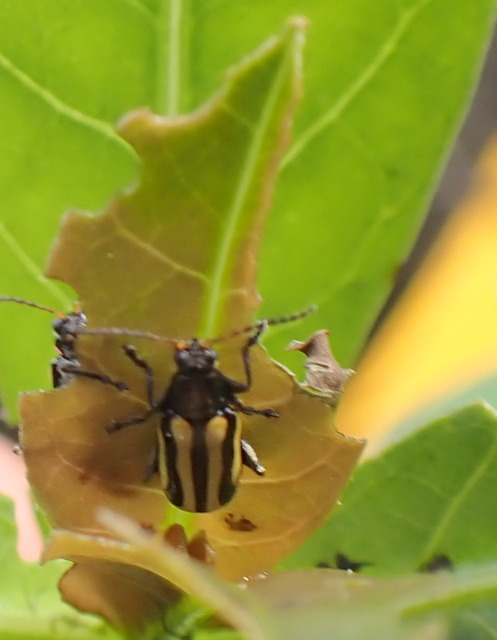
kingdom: Animalia
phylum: Arthropoda
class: Insecta
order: Coleoptera
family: Chrysomelidae
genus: Agasicles
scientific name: Agasicles hygrophila
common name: Alligatorweed flea beetle
